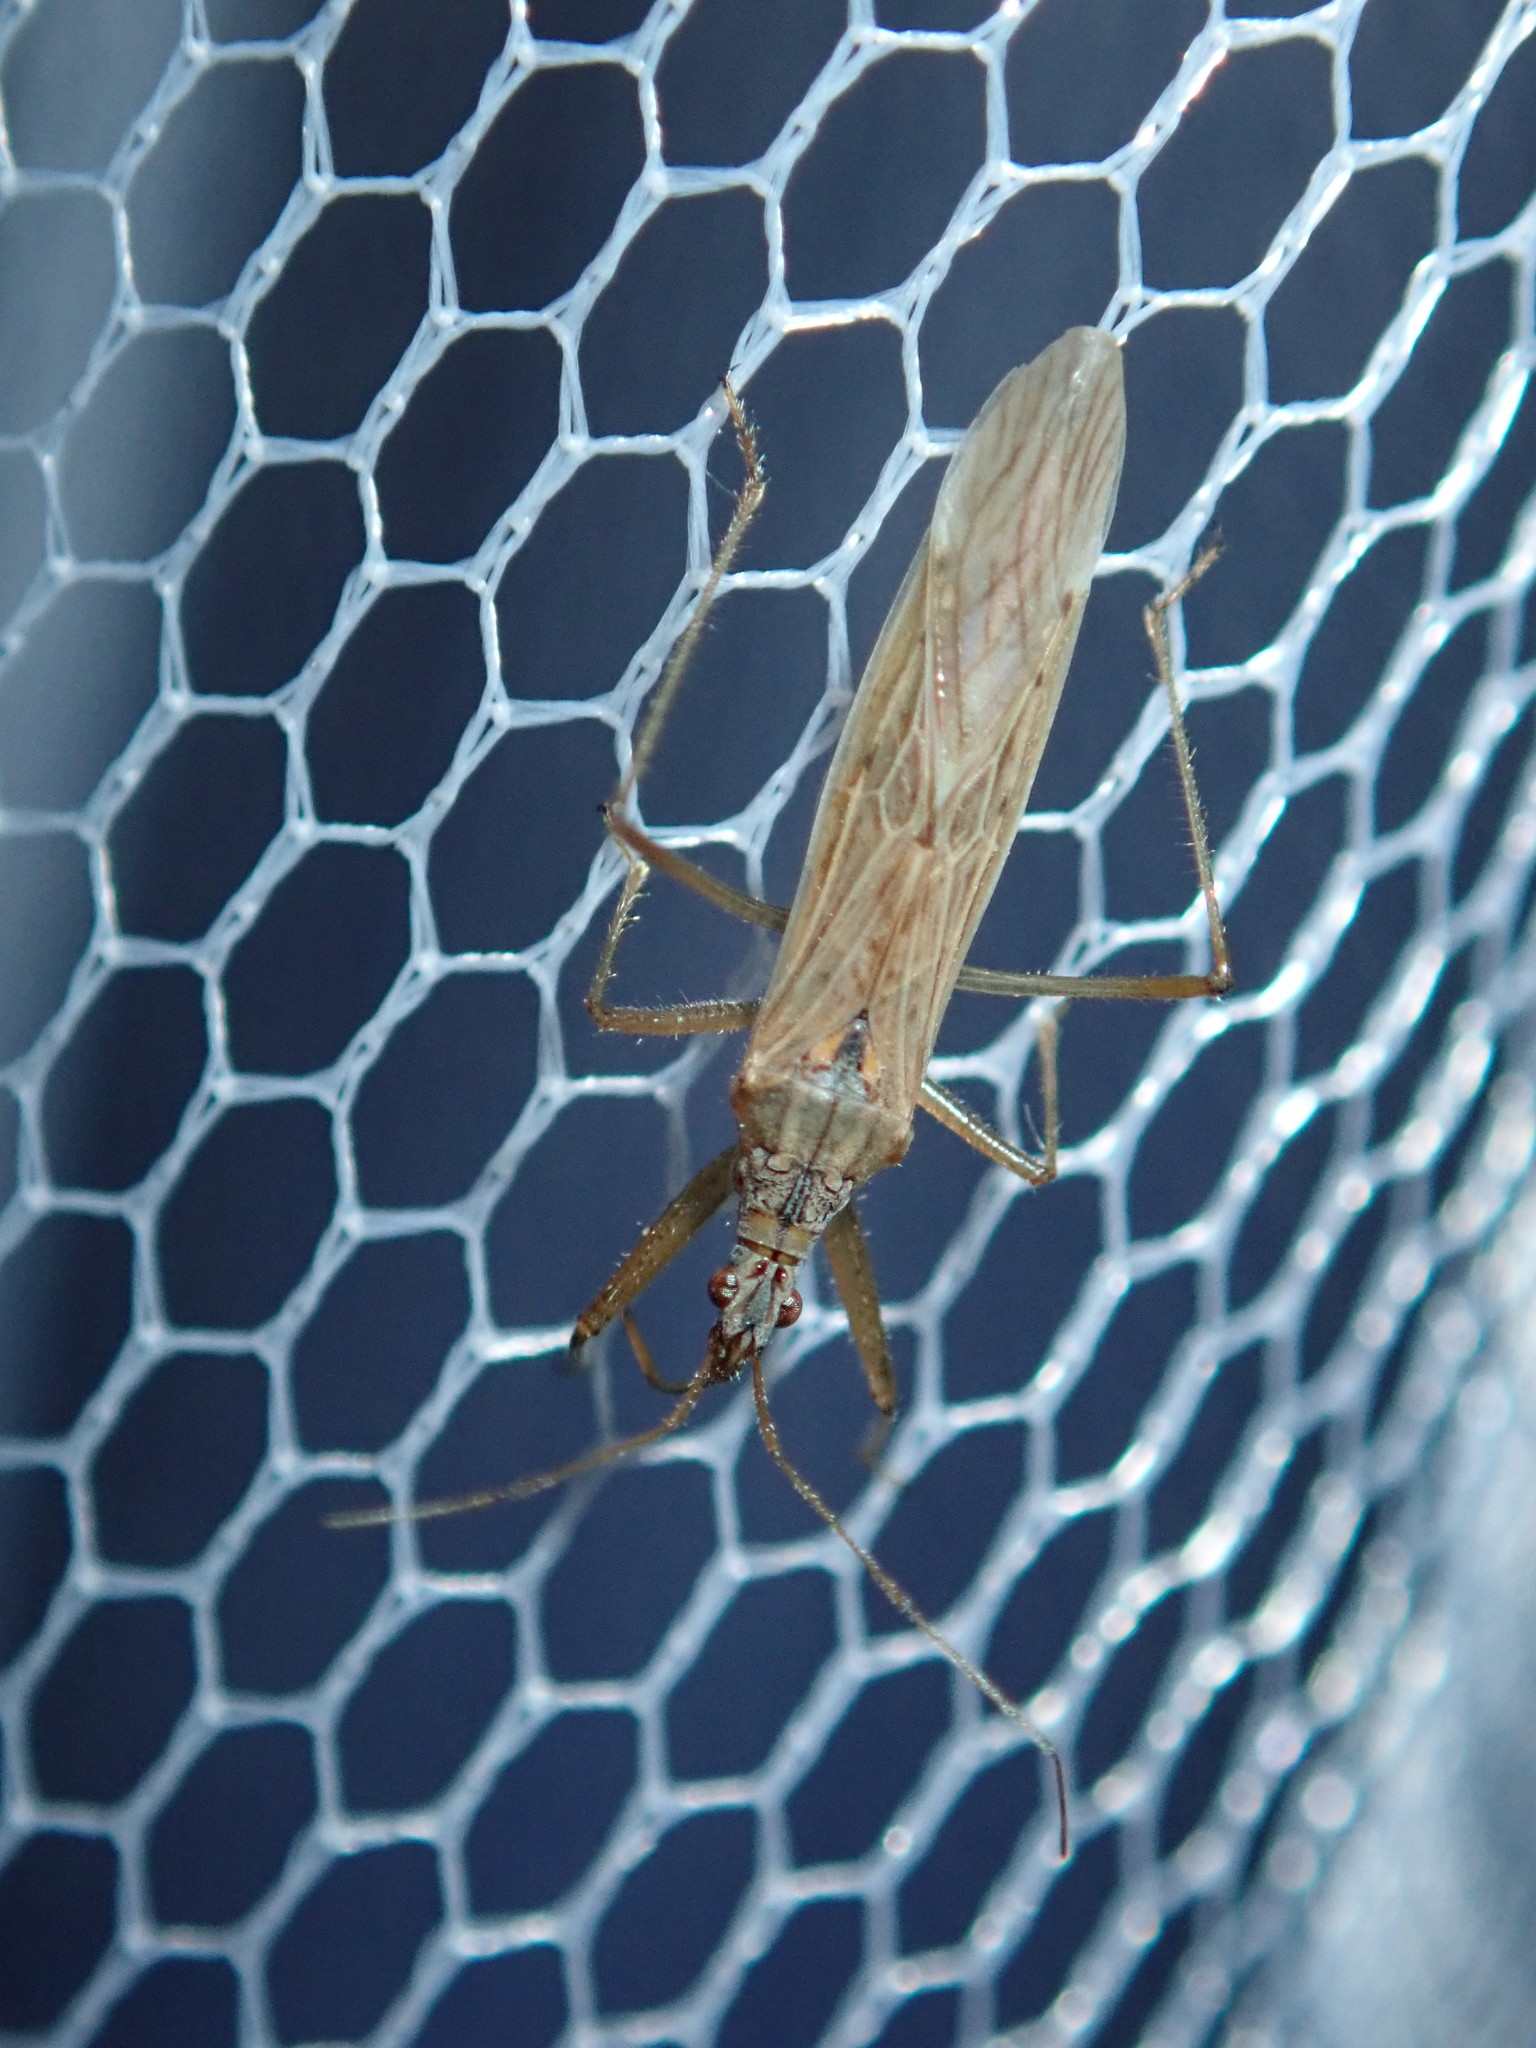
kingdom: Animalia
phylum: Arthropoda
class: Insecta
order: Hemiptera
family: Nabidae
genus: Nabis
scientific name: Nabis kinbergii
